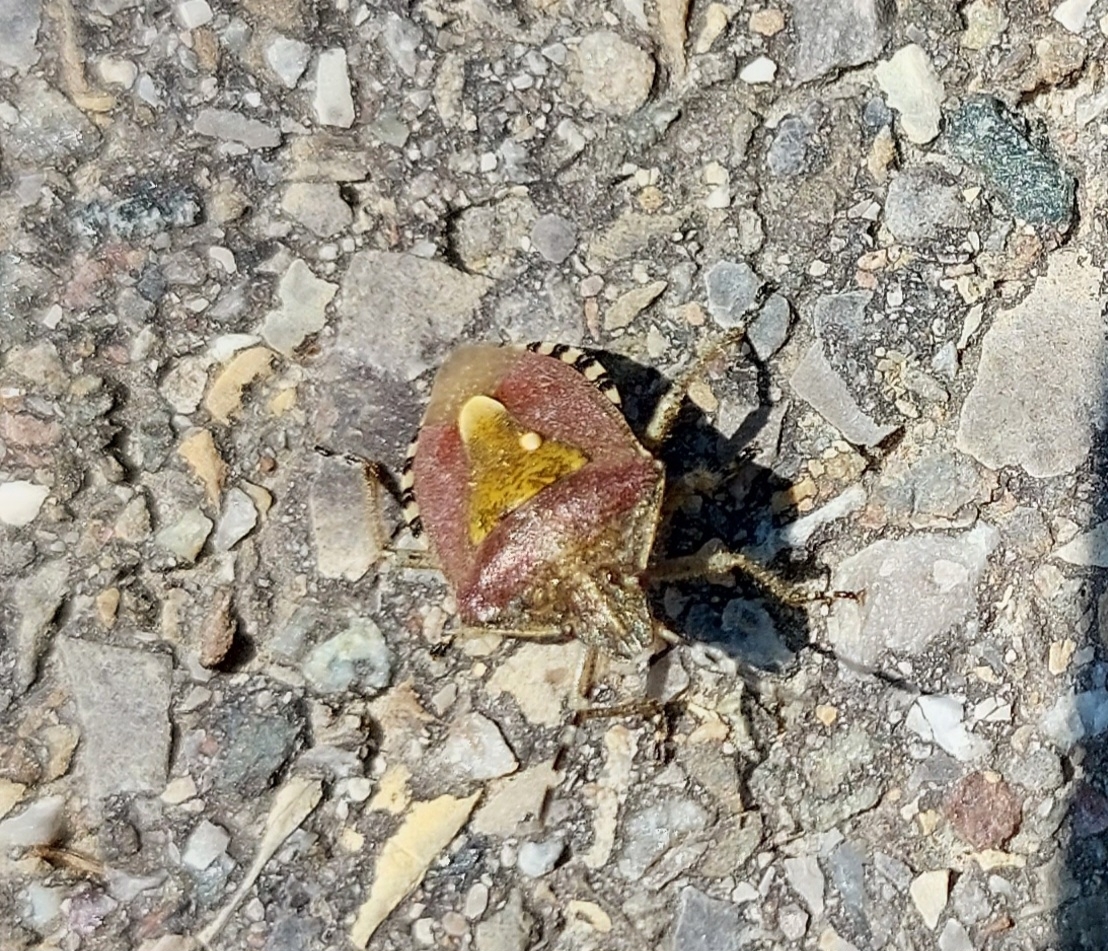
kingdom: Animalia
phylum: Arthropoda
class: Insecta
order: Hemiptera
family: Pentatomidae
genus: Dolycoris
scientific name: Dolycoris baccarum
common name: Sloe bug
